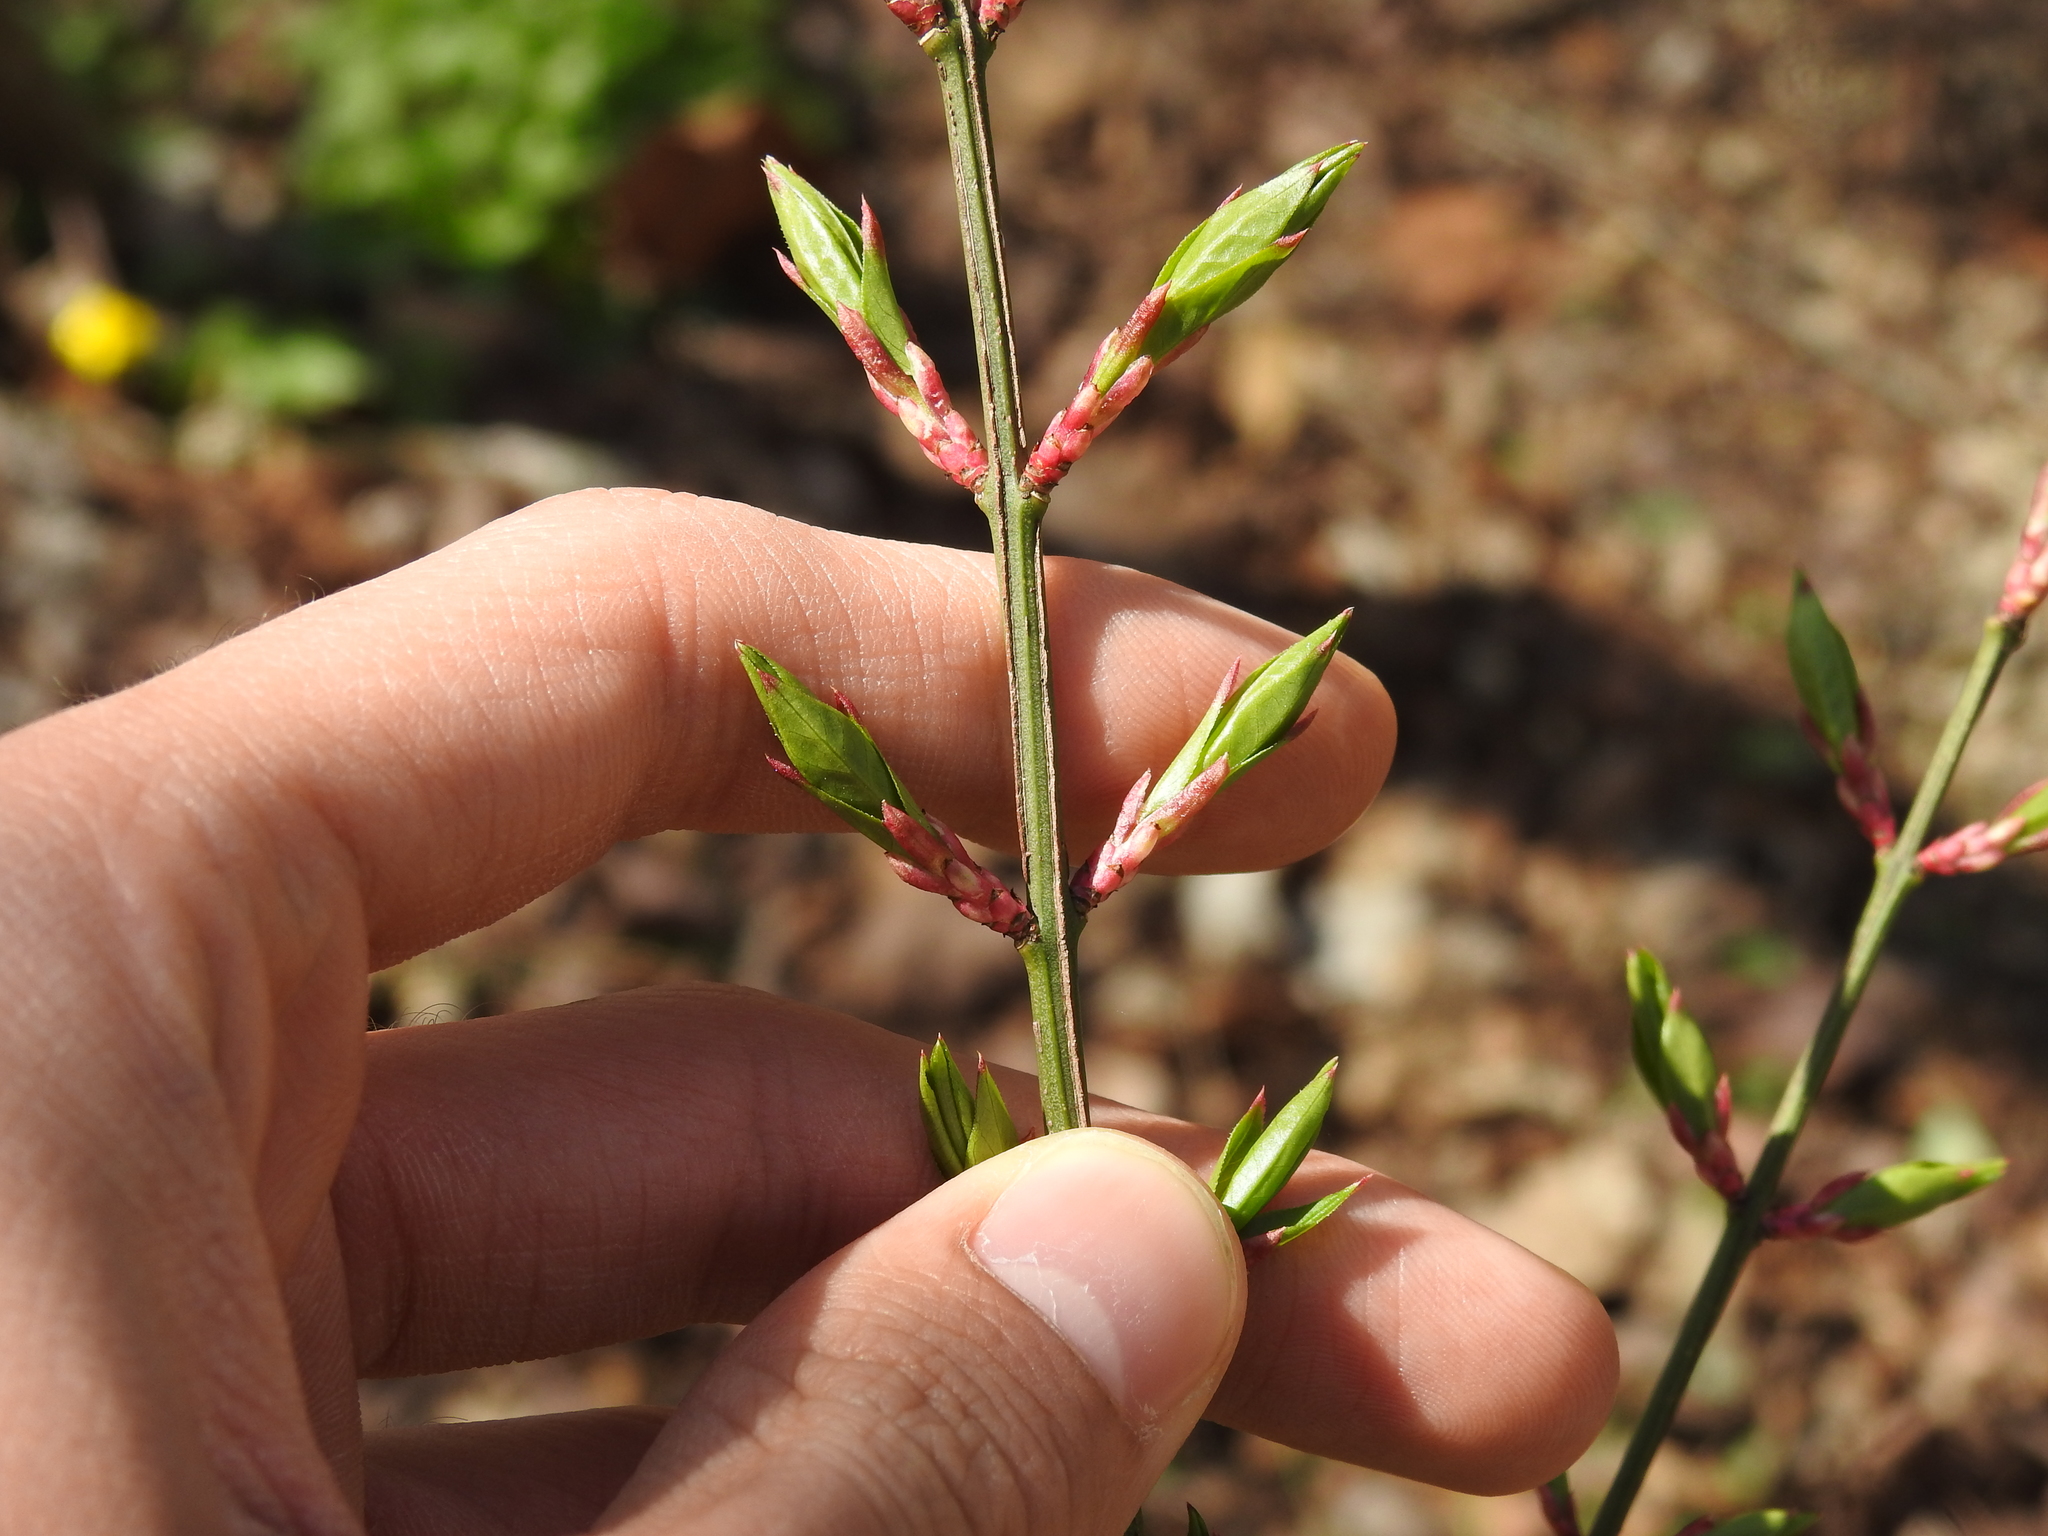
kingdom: Plantae
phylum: Tracheophyta
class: Magnoliopsida
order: Celastrales
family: Celastraceae
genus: Euonymus
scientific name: Euonymus alatus
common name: Winged euonymus
